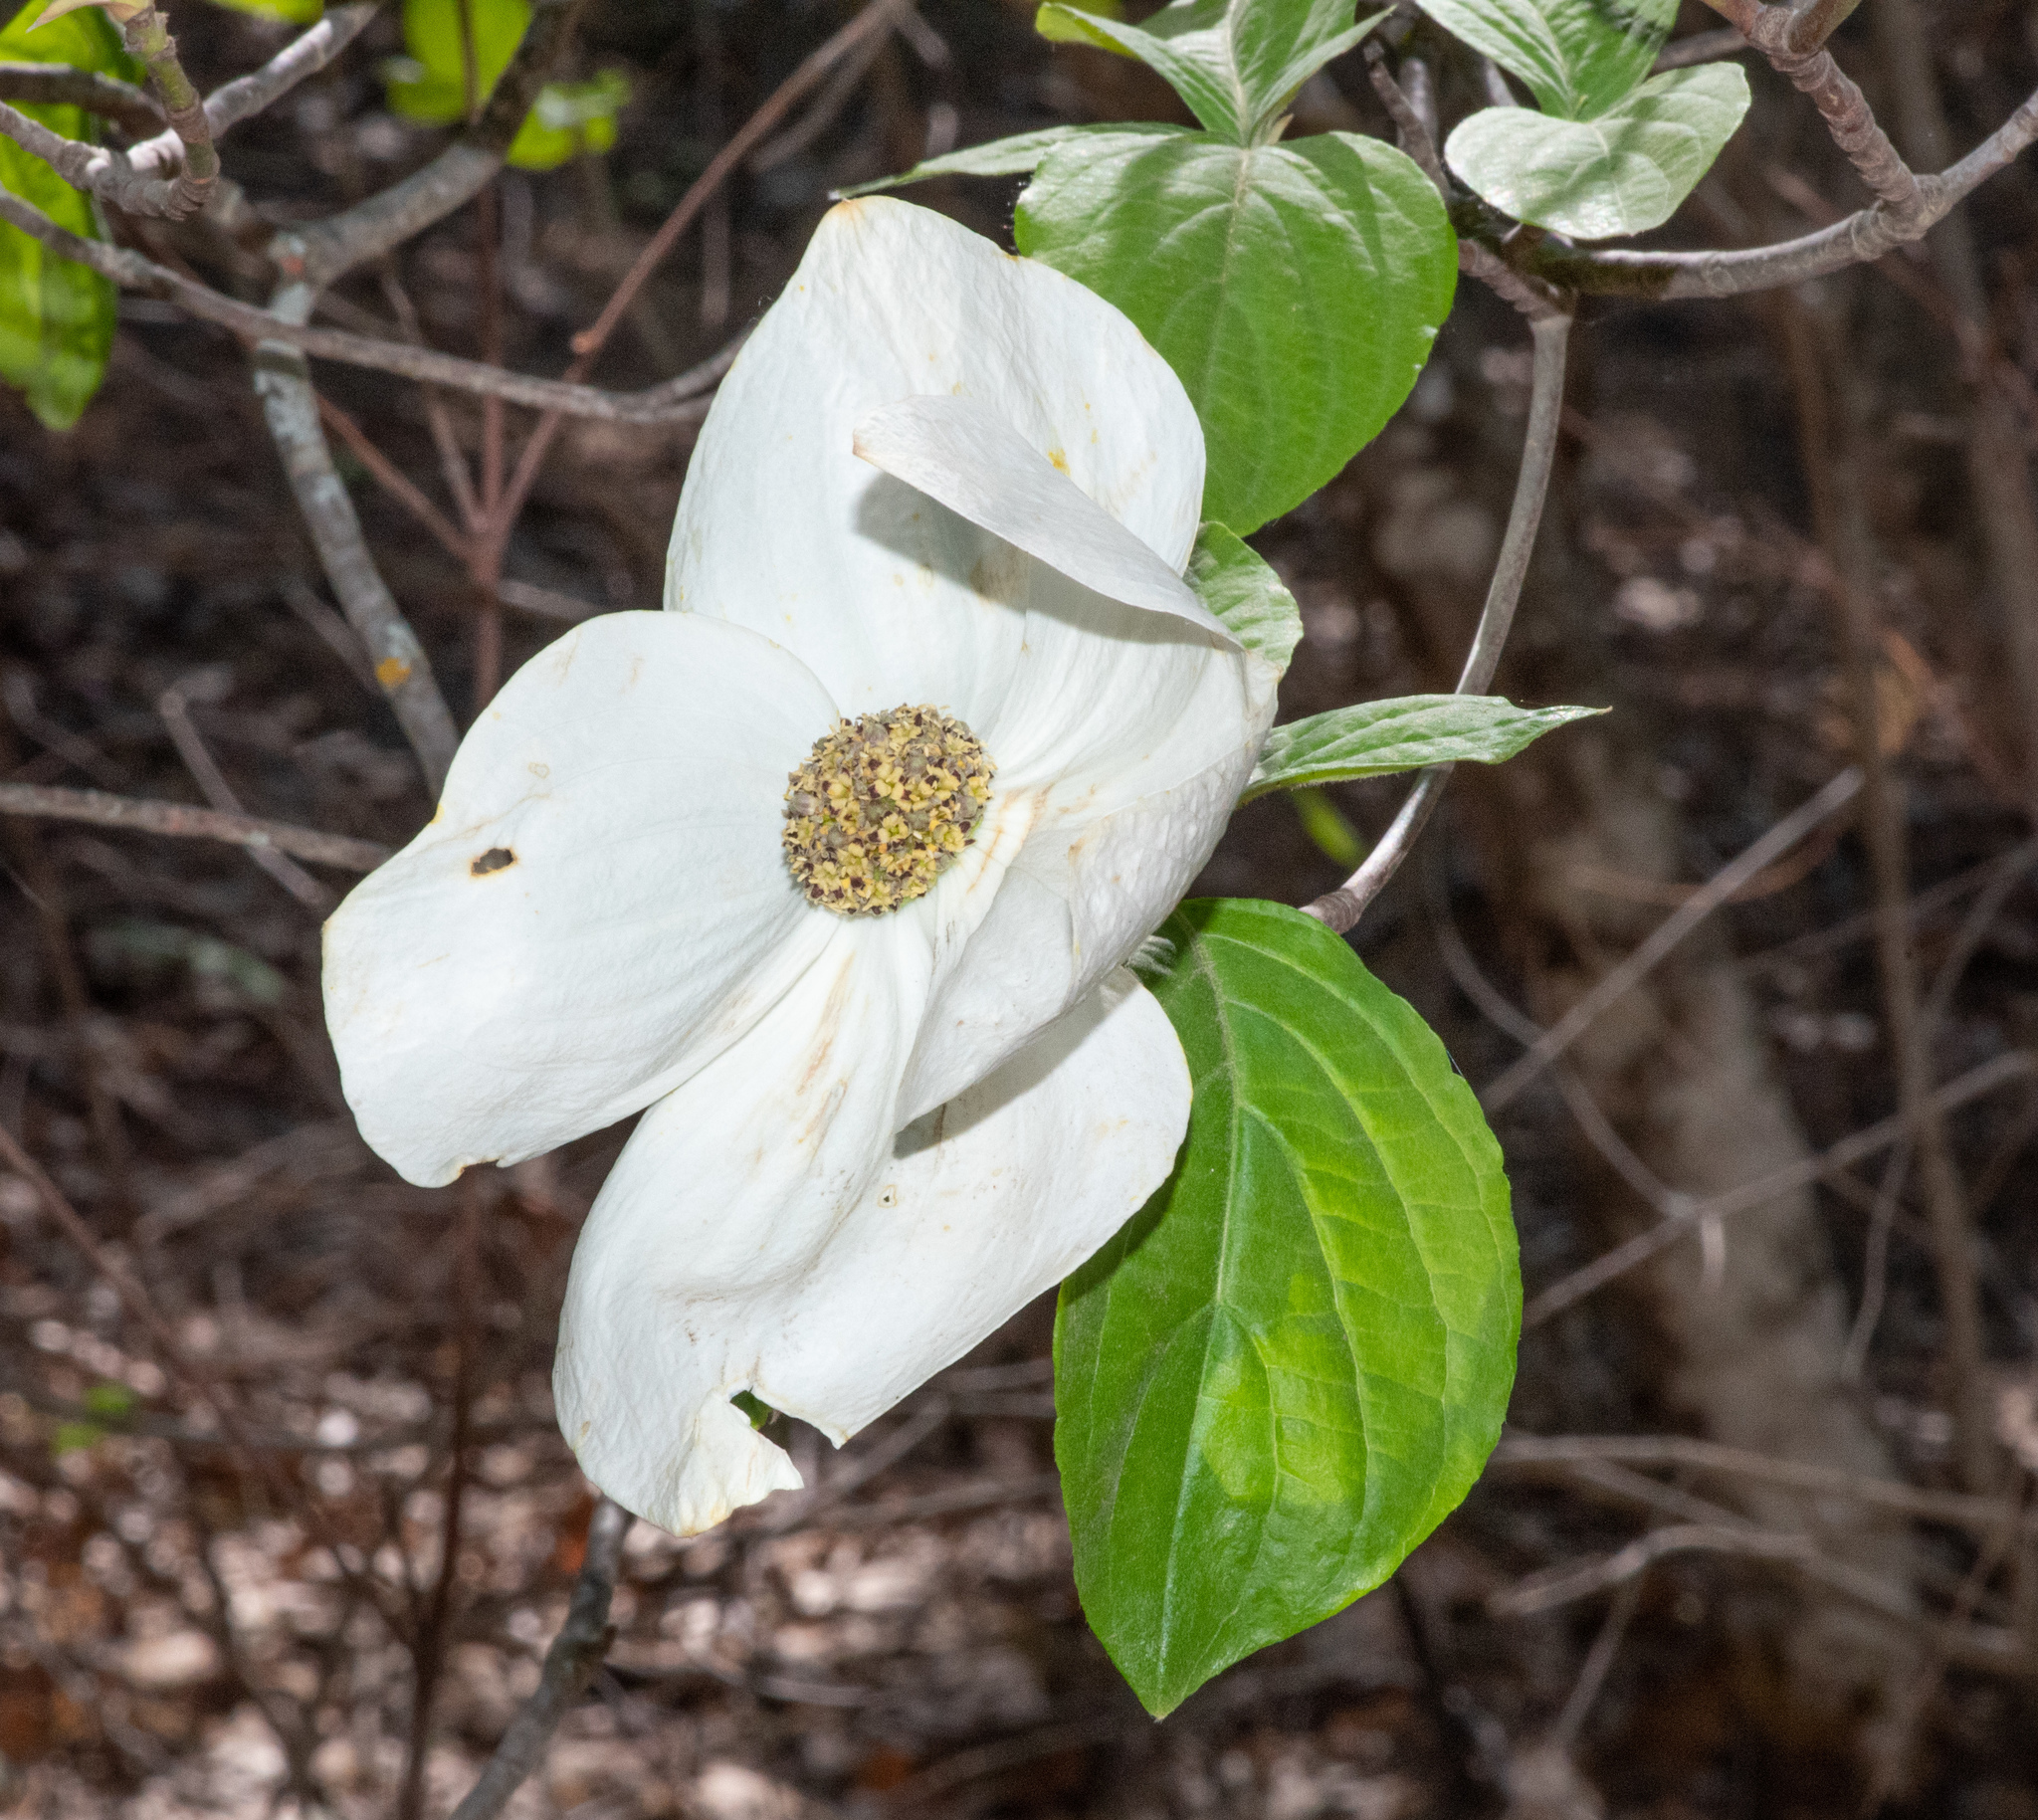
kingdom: Plantae
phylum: Tracheophyta
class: Magnoliopsida
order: Cornales
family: Cornaceae
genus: Cornus
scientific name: Cornus nuttallii
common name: Pacific dogwood
